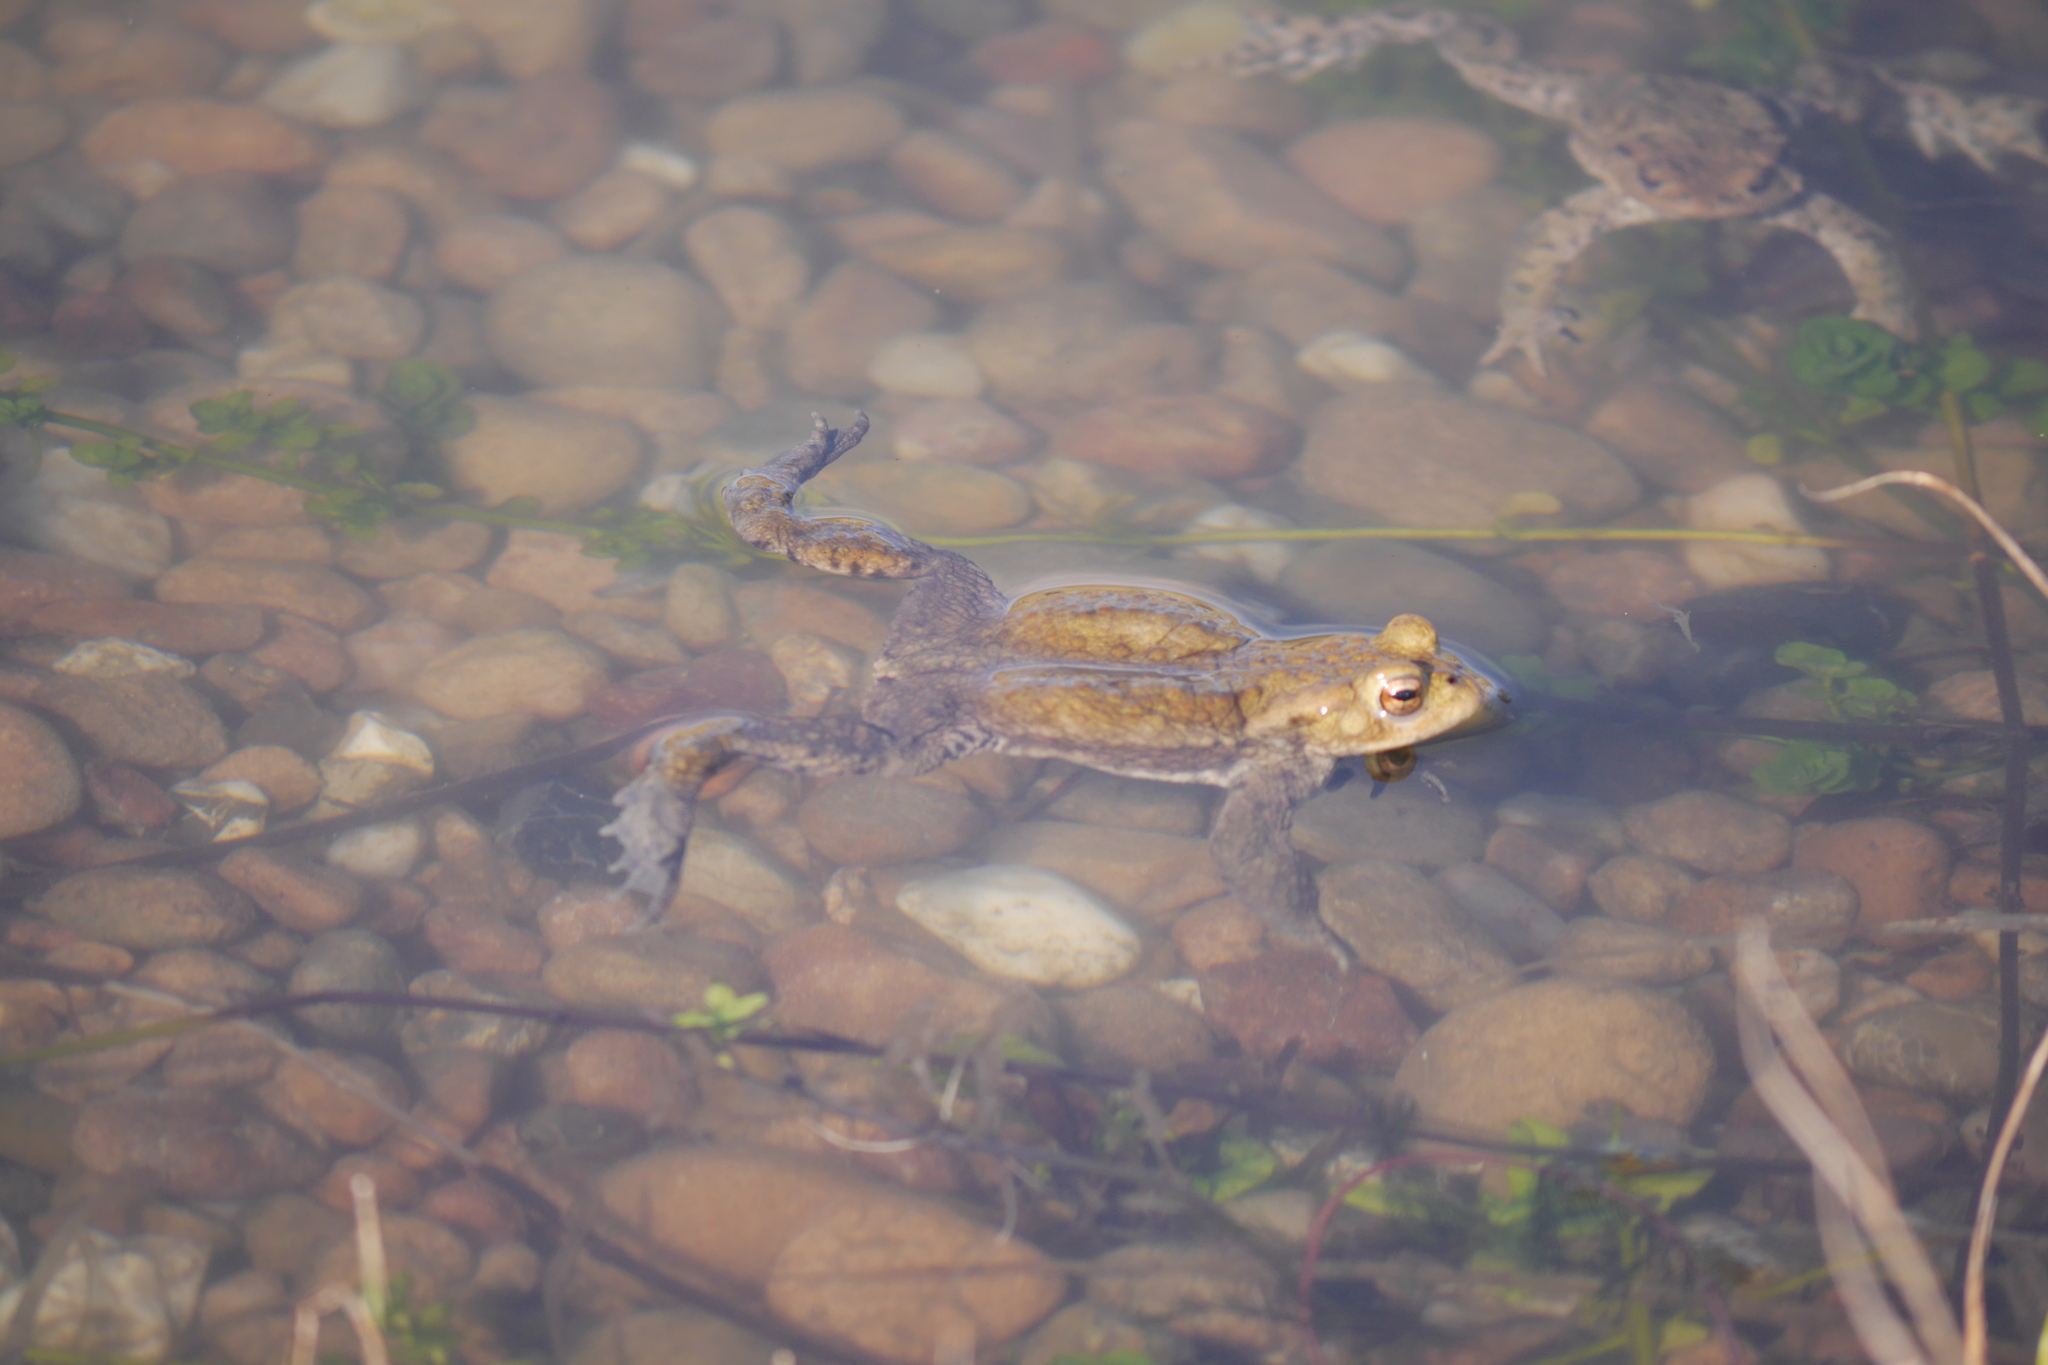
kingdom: Animalia
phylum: Chordata
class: Amphibia
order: Anura
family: Bufonidae
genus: Bufo
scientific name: Bufo bufo
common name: Common toad
